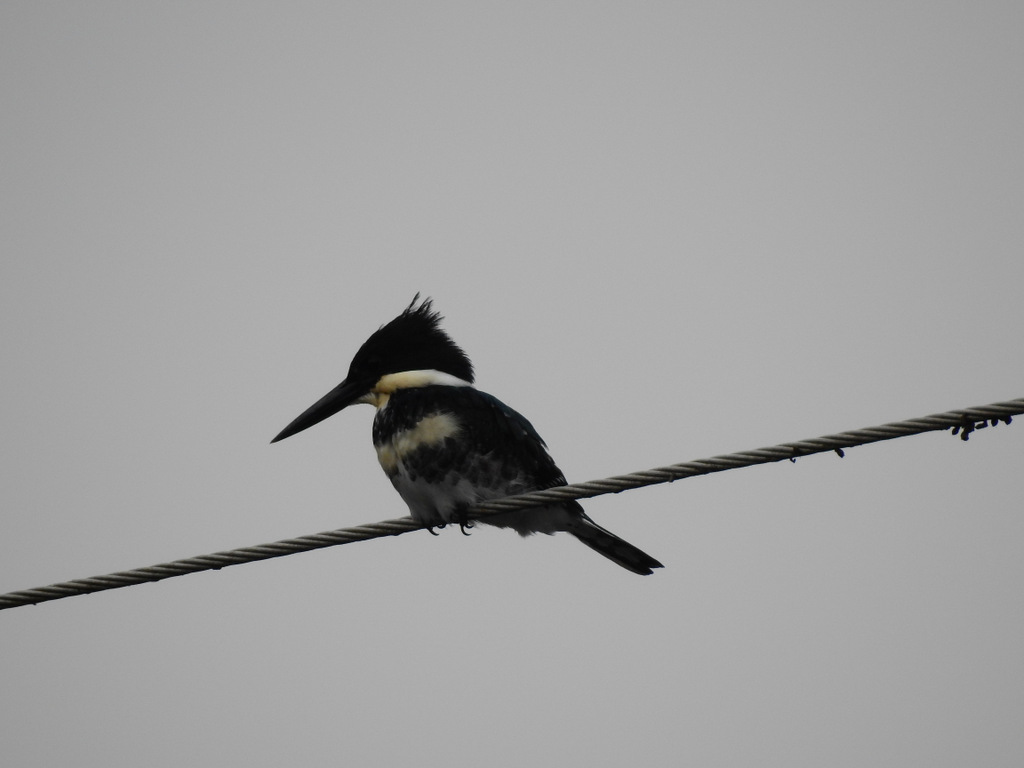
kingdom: Animalia
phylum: Chordata
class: Aves
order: Coraciiformes
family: Alcedinidae
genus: Chloroceryle
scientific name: Chloroceryle amazona
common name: Amazon kingfisher
